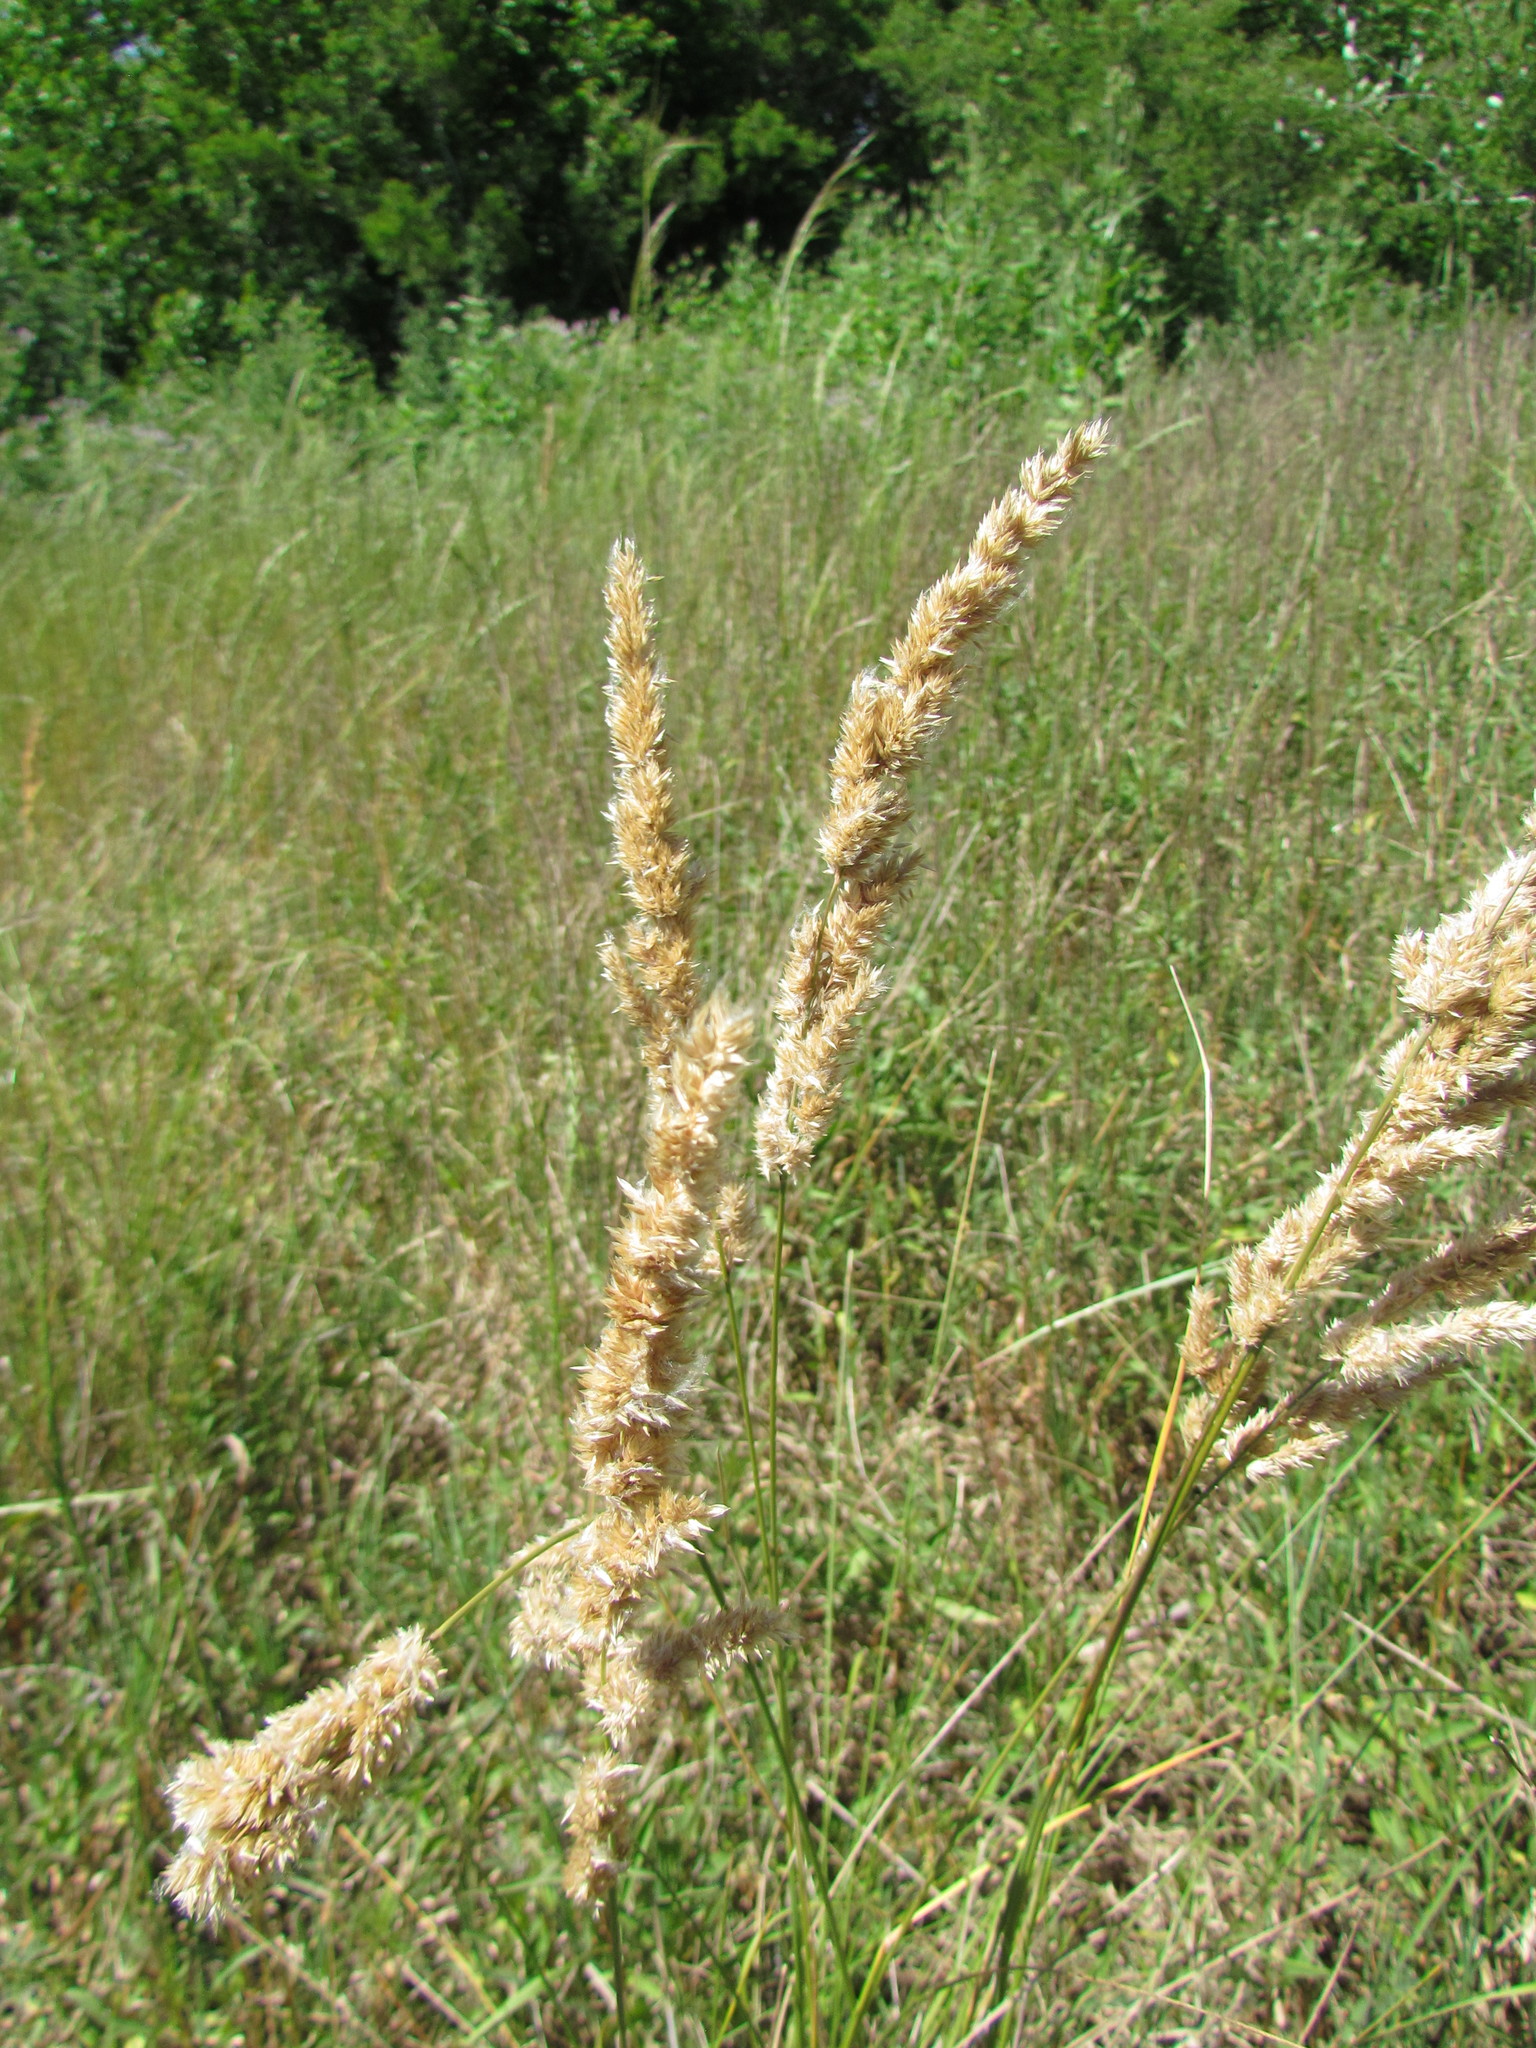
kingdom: Plantae
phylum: Tracheophyta
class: Liliopsida
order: Poales
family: Poaceae
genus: Polypogon
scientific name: Polypogon chilensis
